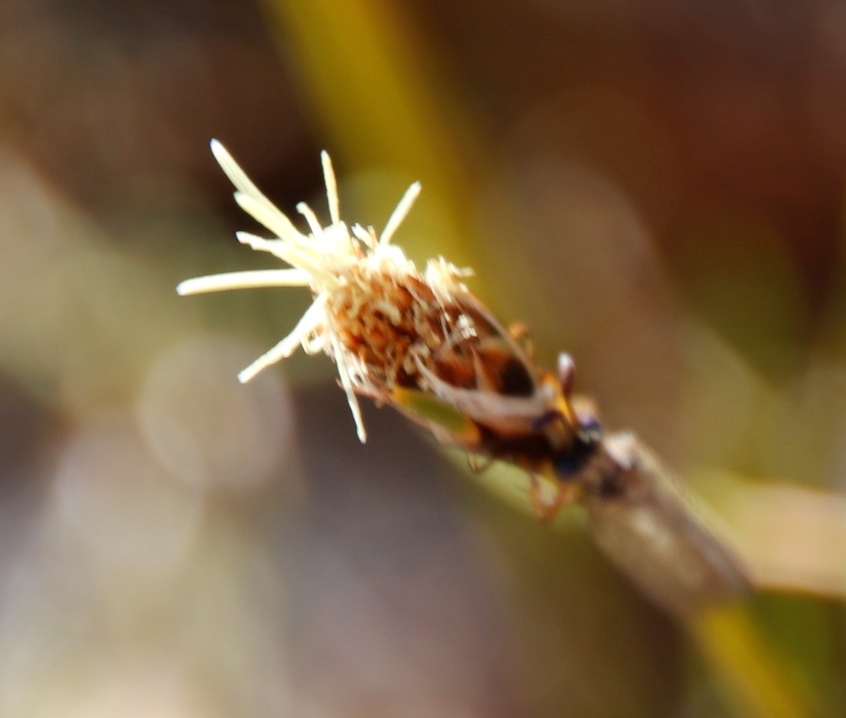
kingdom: Plantae
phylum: Tracheophyta
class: Liliopsida
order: Poales
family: Cyperaceae
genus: Ficinia
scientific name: Ficinia deusta
